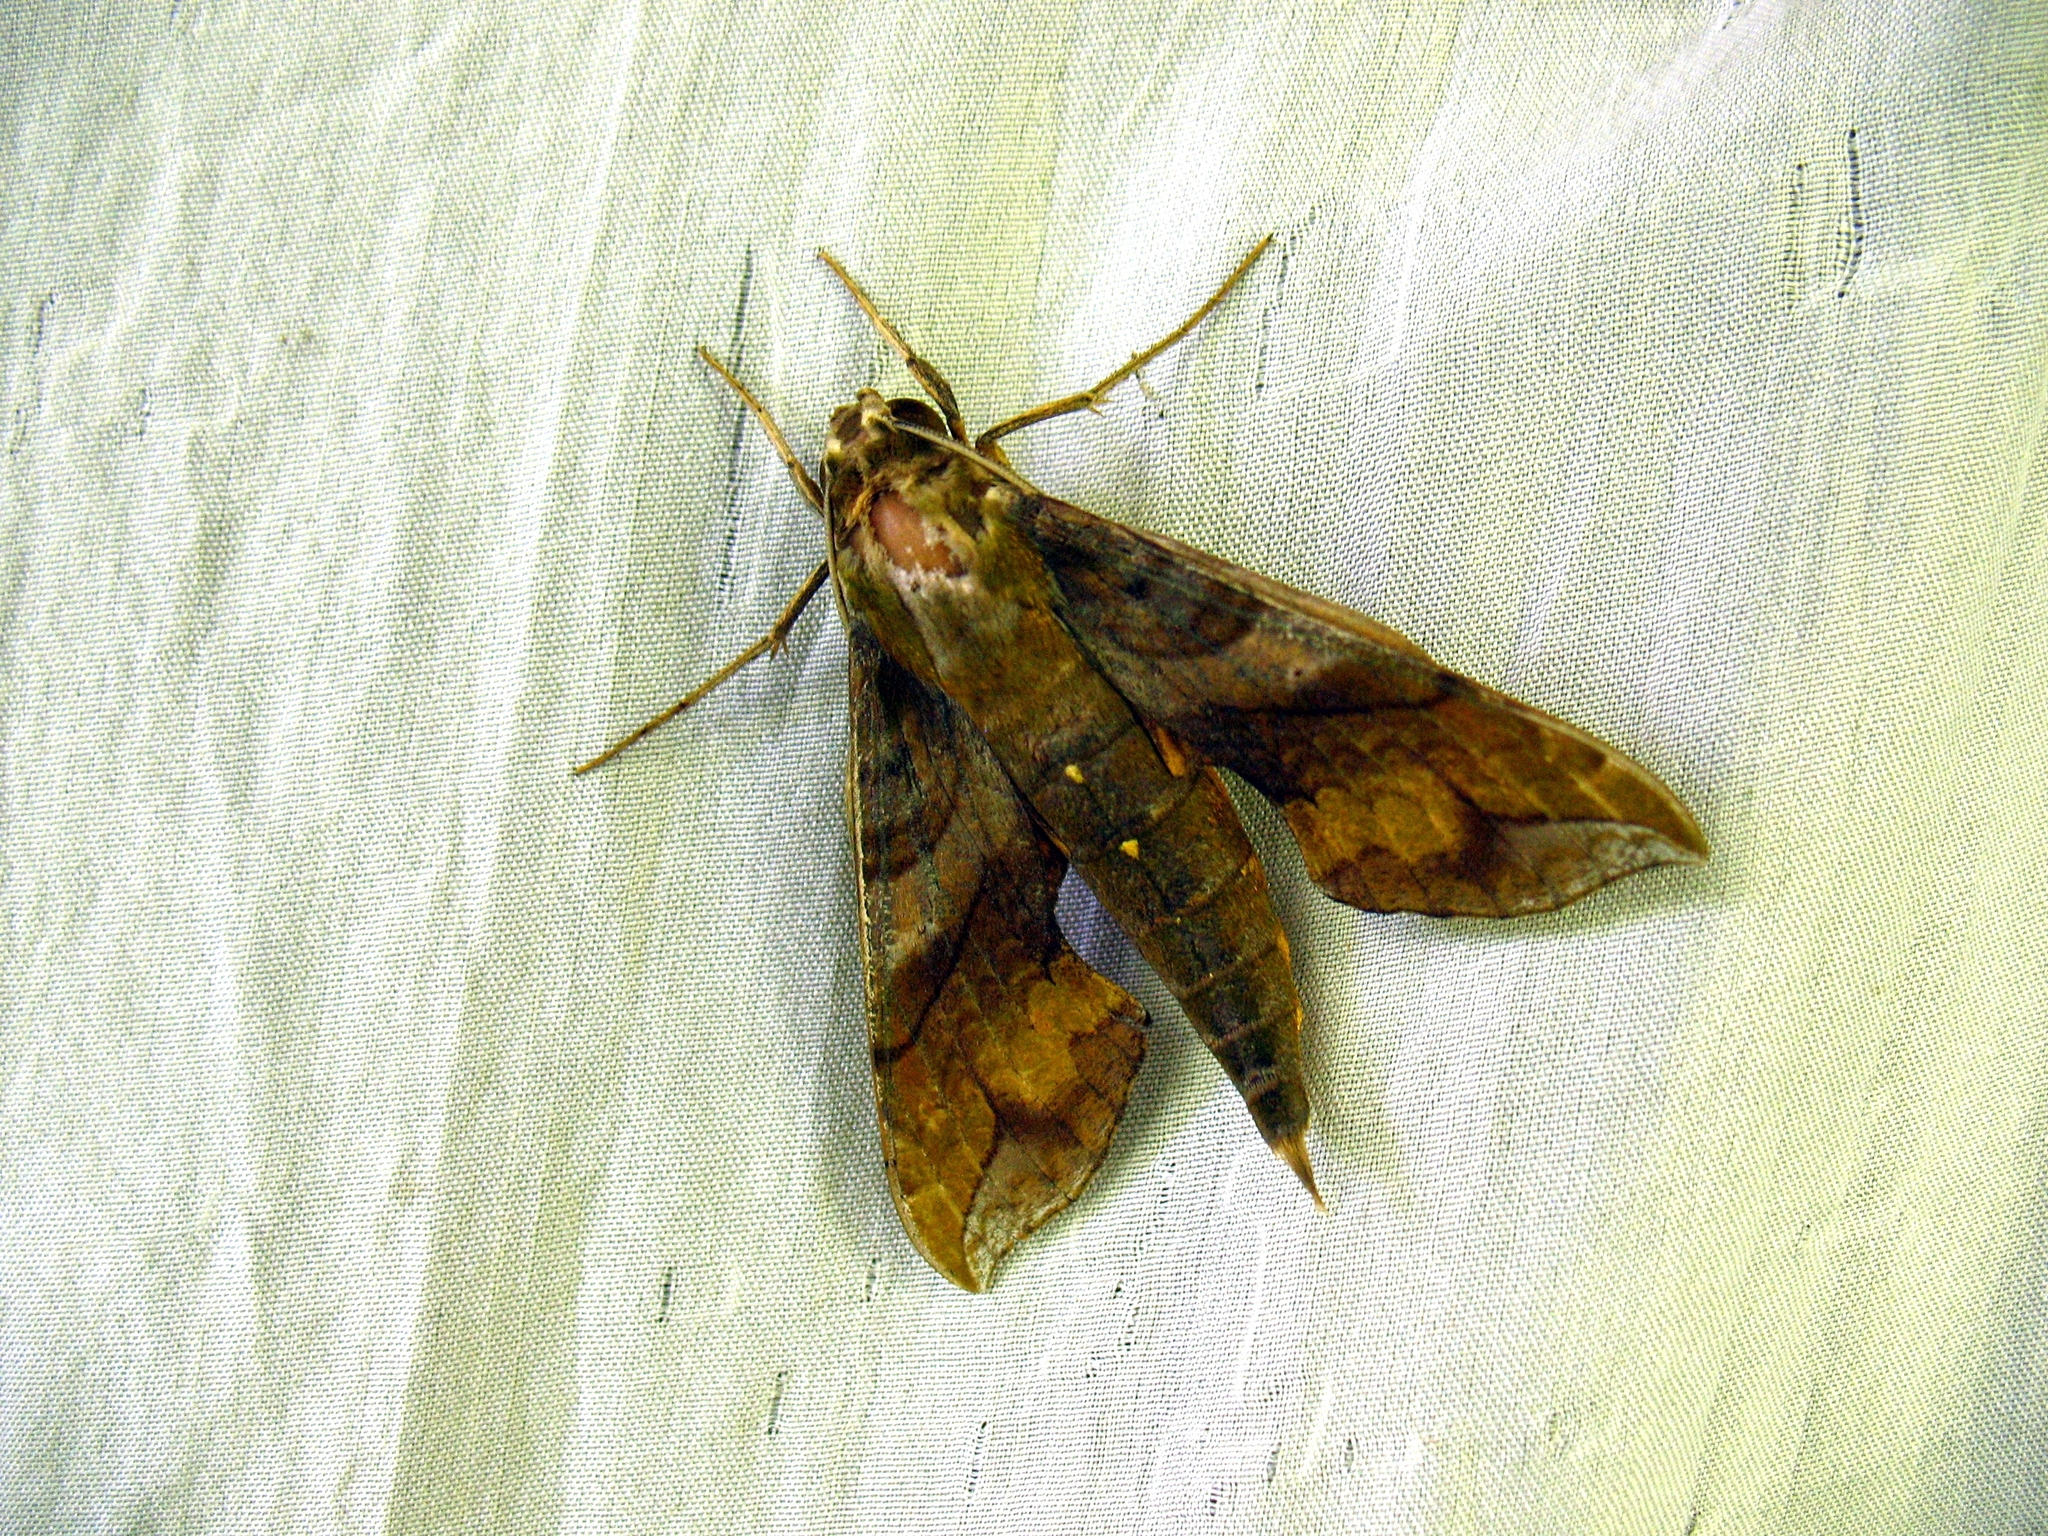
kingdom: Animalia
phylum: Arthropoda
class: Insecta
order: Lepidoptera
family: Sphingidae
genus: Xylophanes
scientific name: Xylophanes pluto
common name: Pluto sphinx
